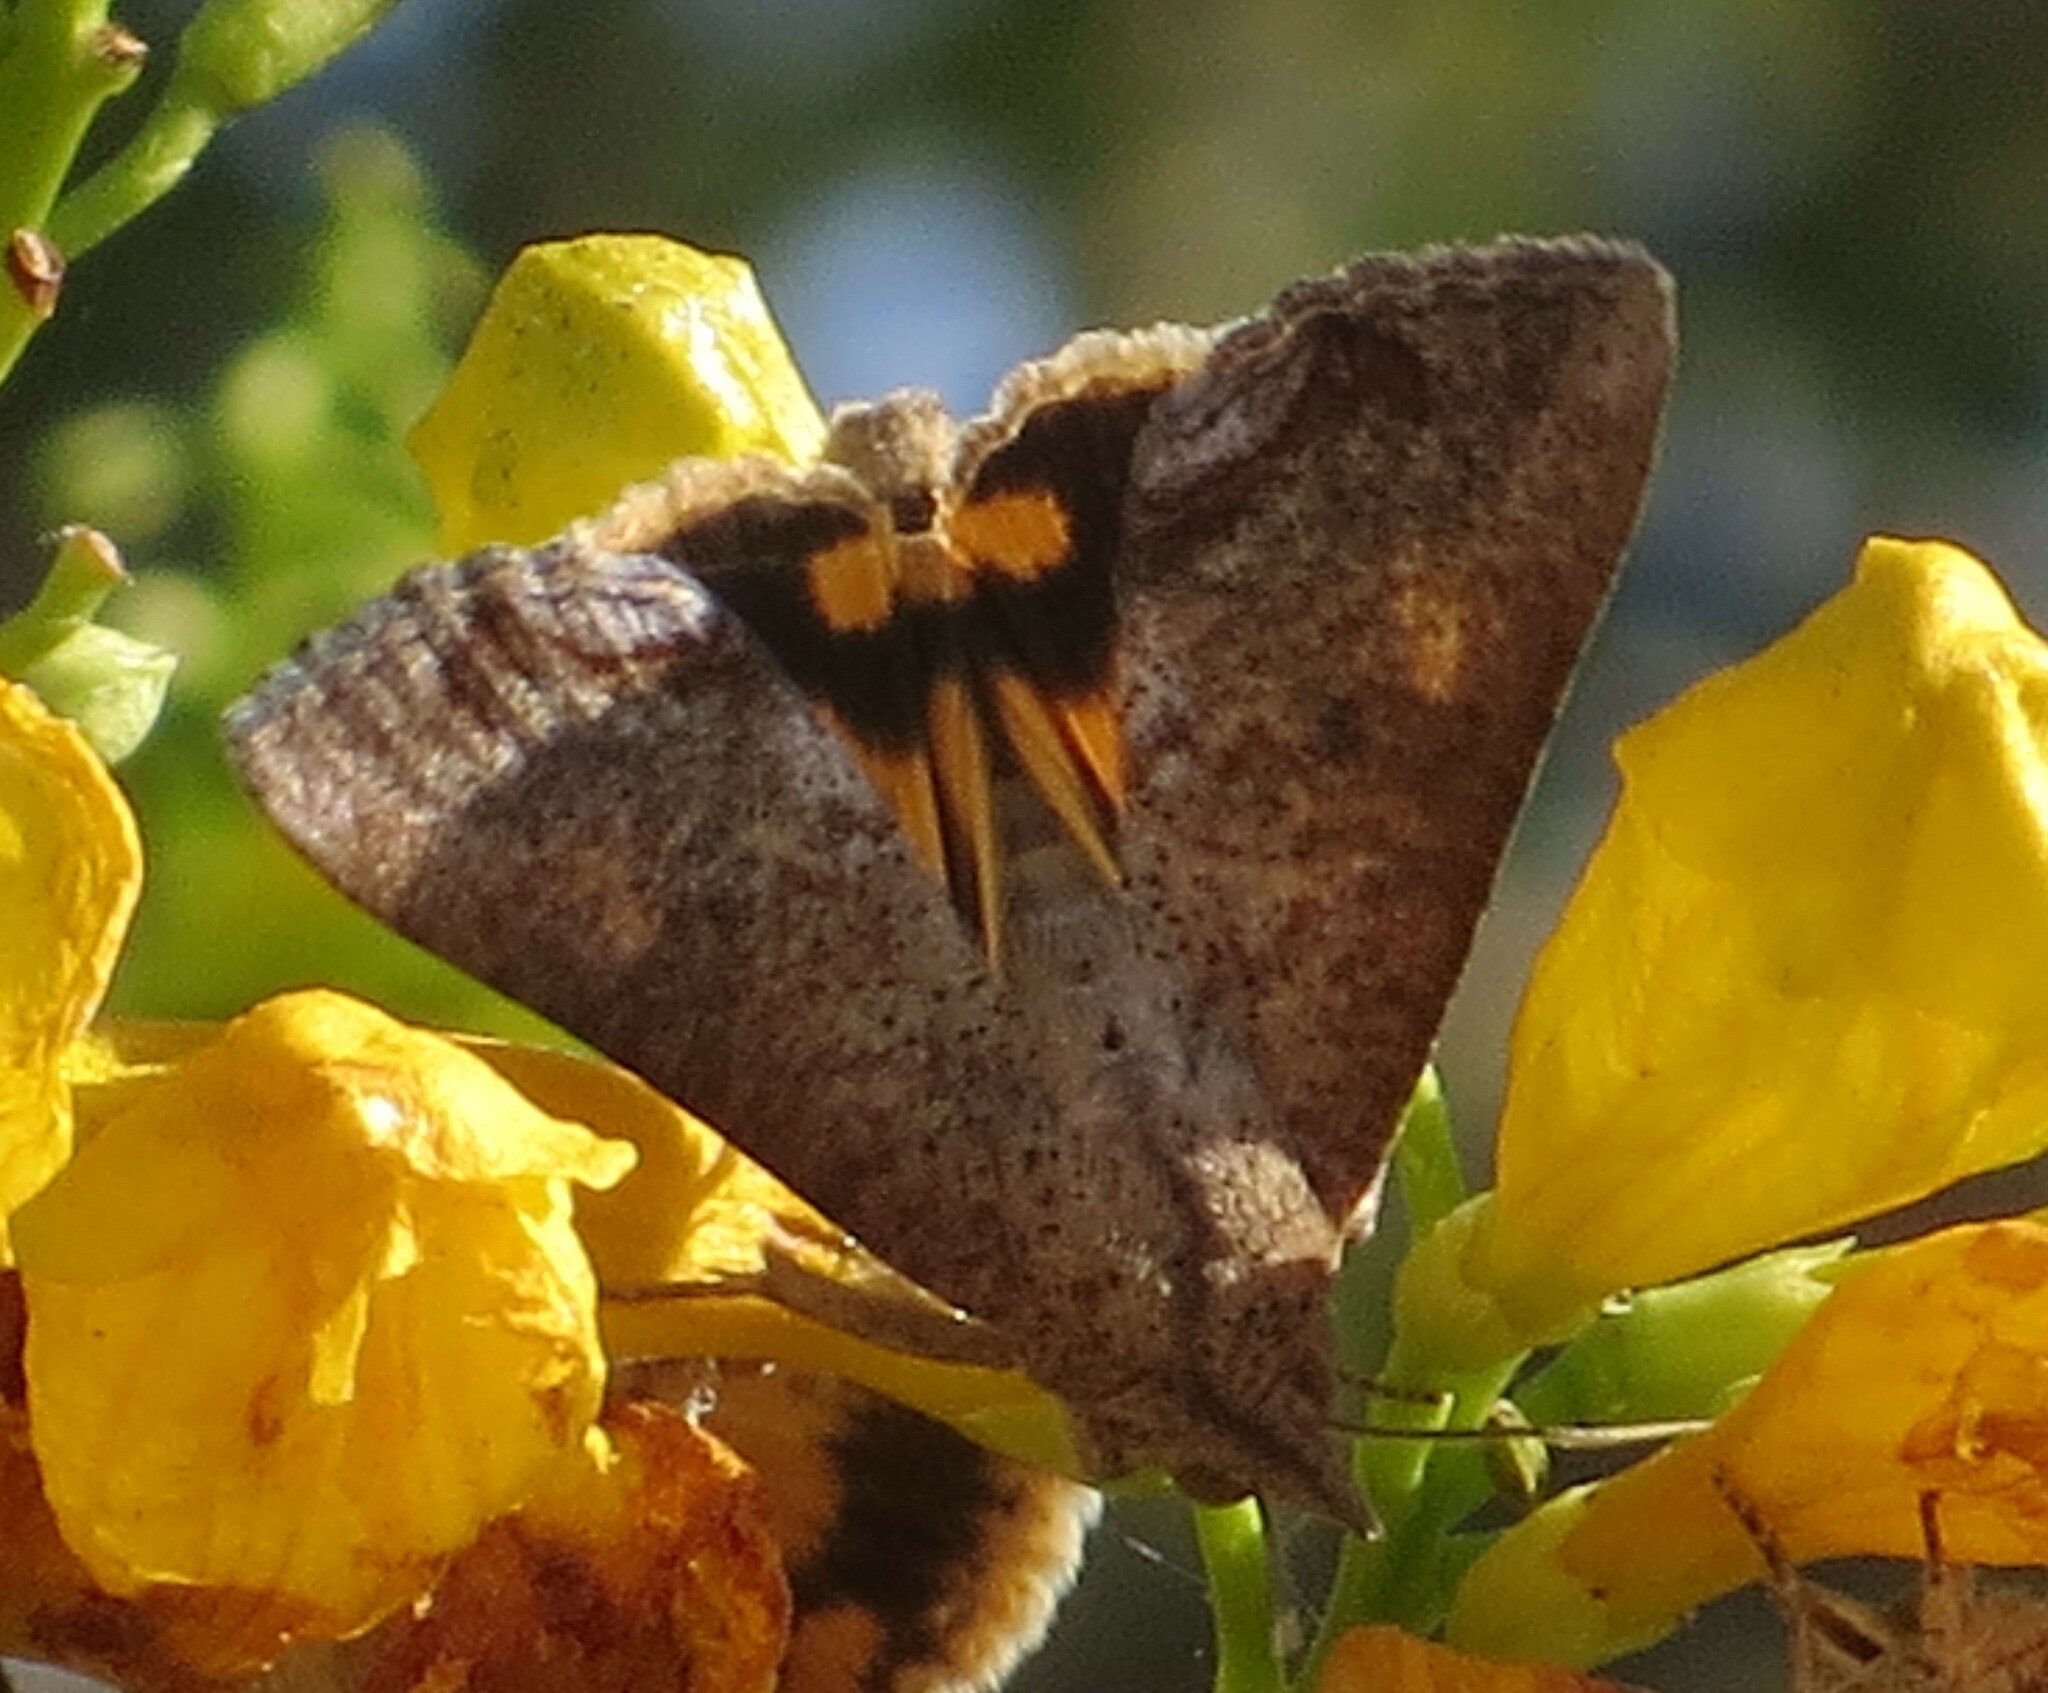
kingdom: Animalia
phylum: Arthropoda
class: Insecta
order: Lepidoptera
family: Erebidae
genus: Hypocala
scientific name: Hypocala andremona
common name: Hypocala moth
